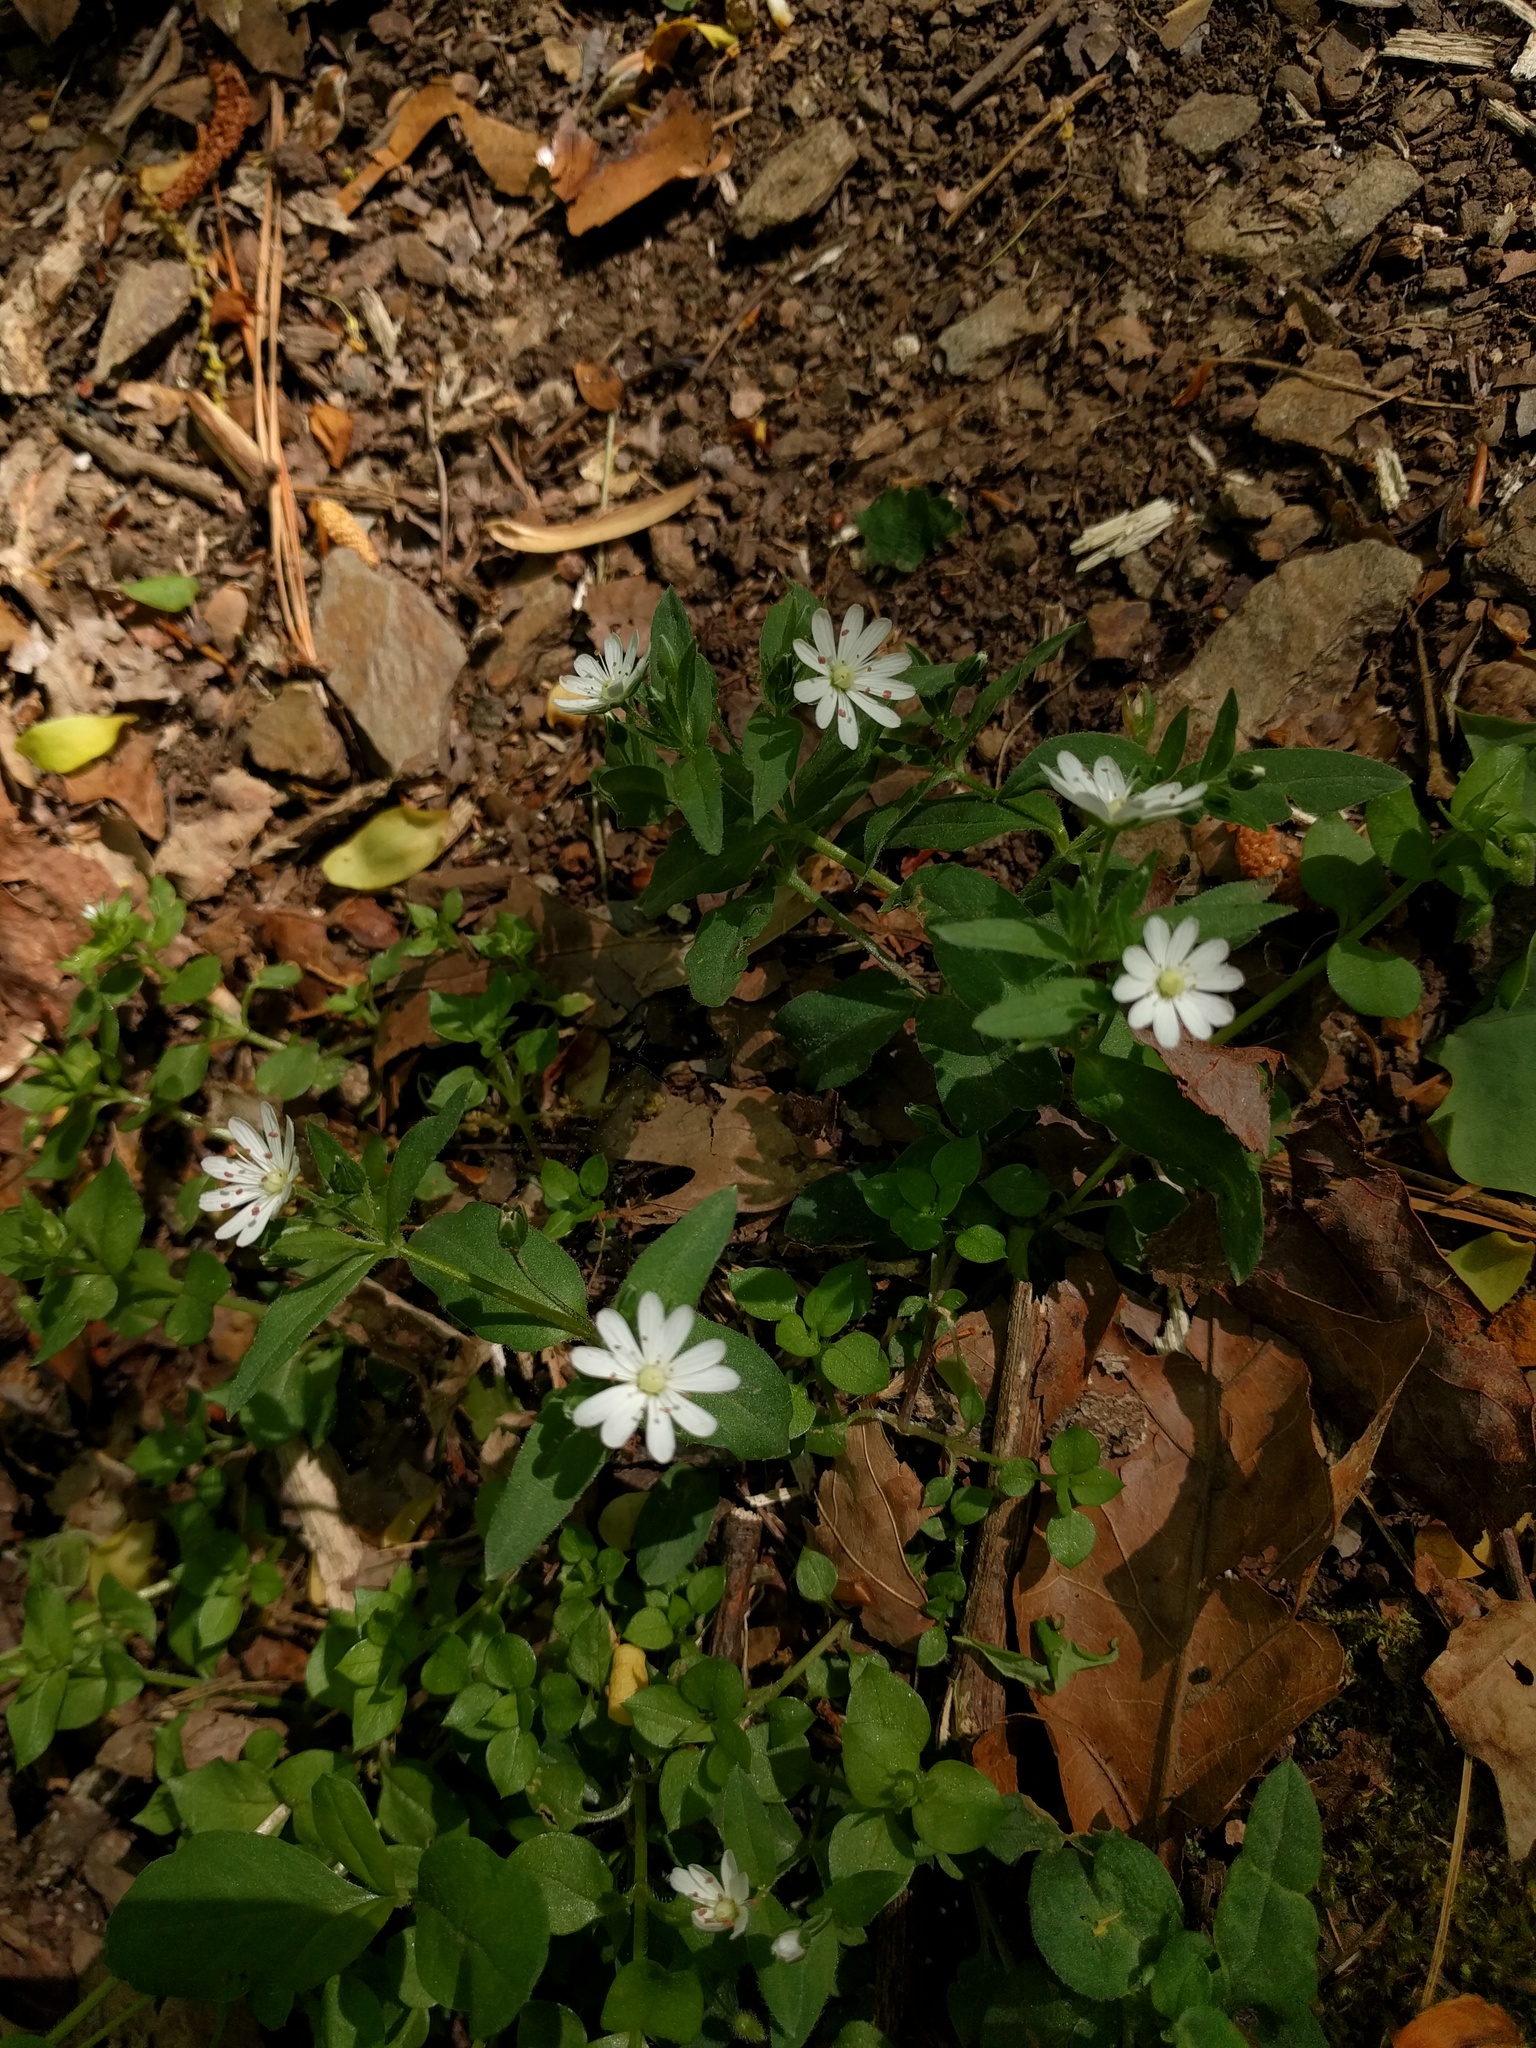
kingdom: Plantae
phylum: Tracheophyta
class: Magnoliopsida
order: Caryophyllales
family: Caryophyllaceae
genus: Stellaria
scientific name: Stellaria pubera
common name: Star chickweed
